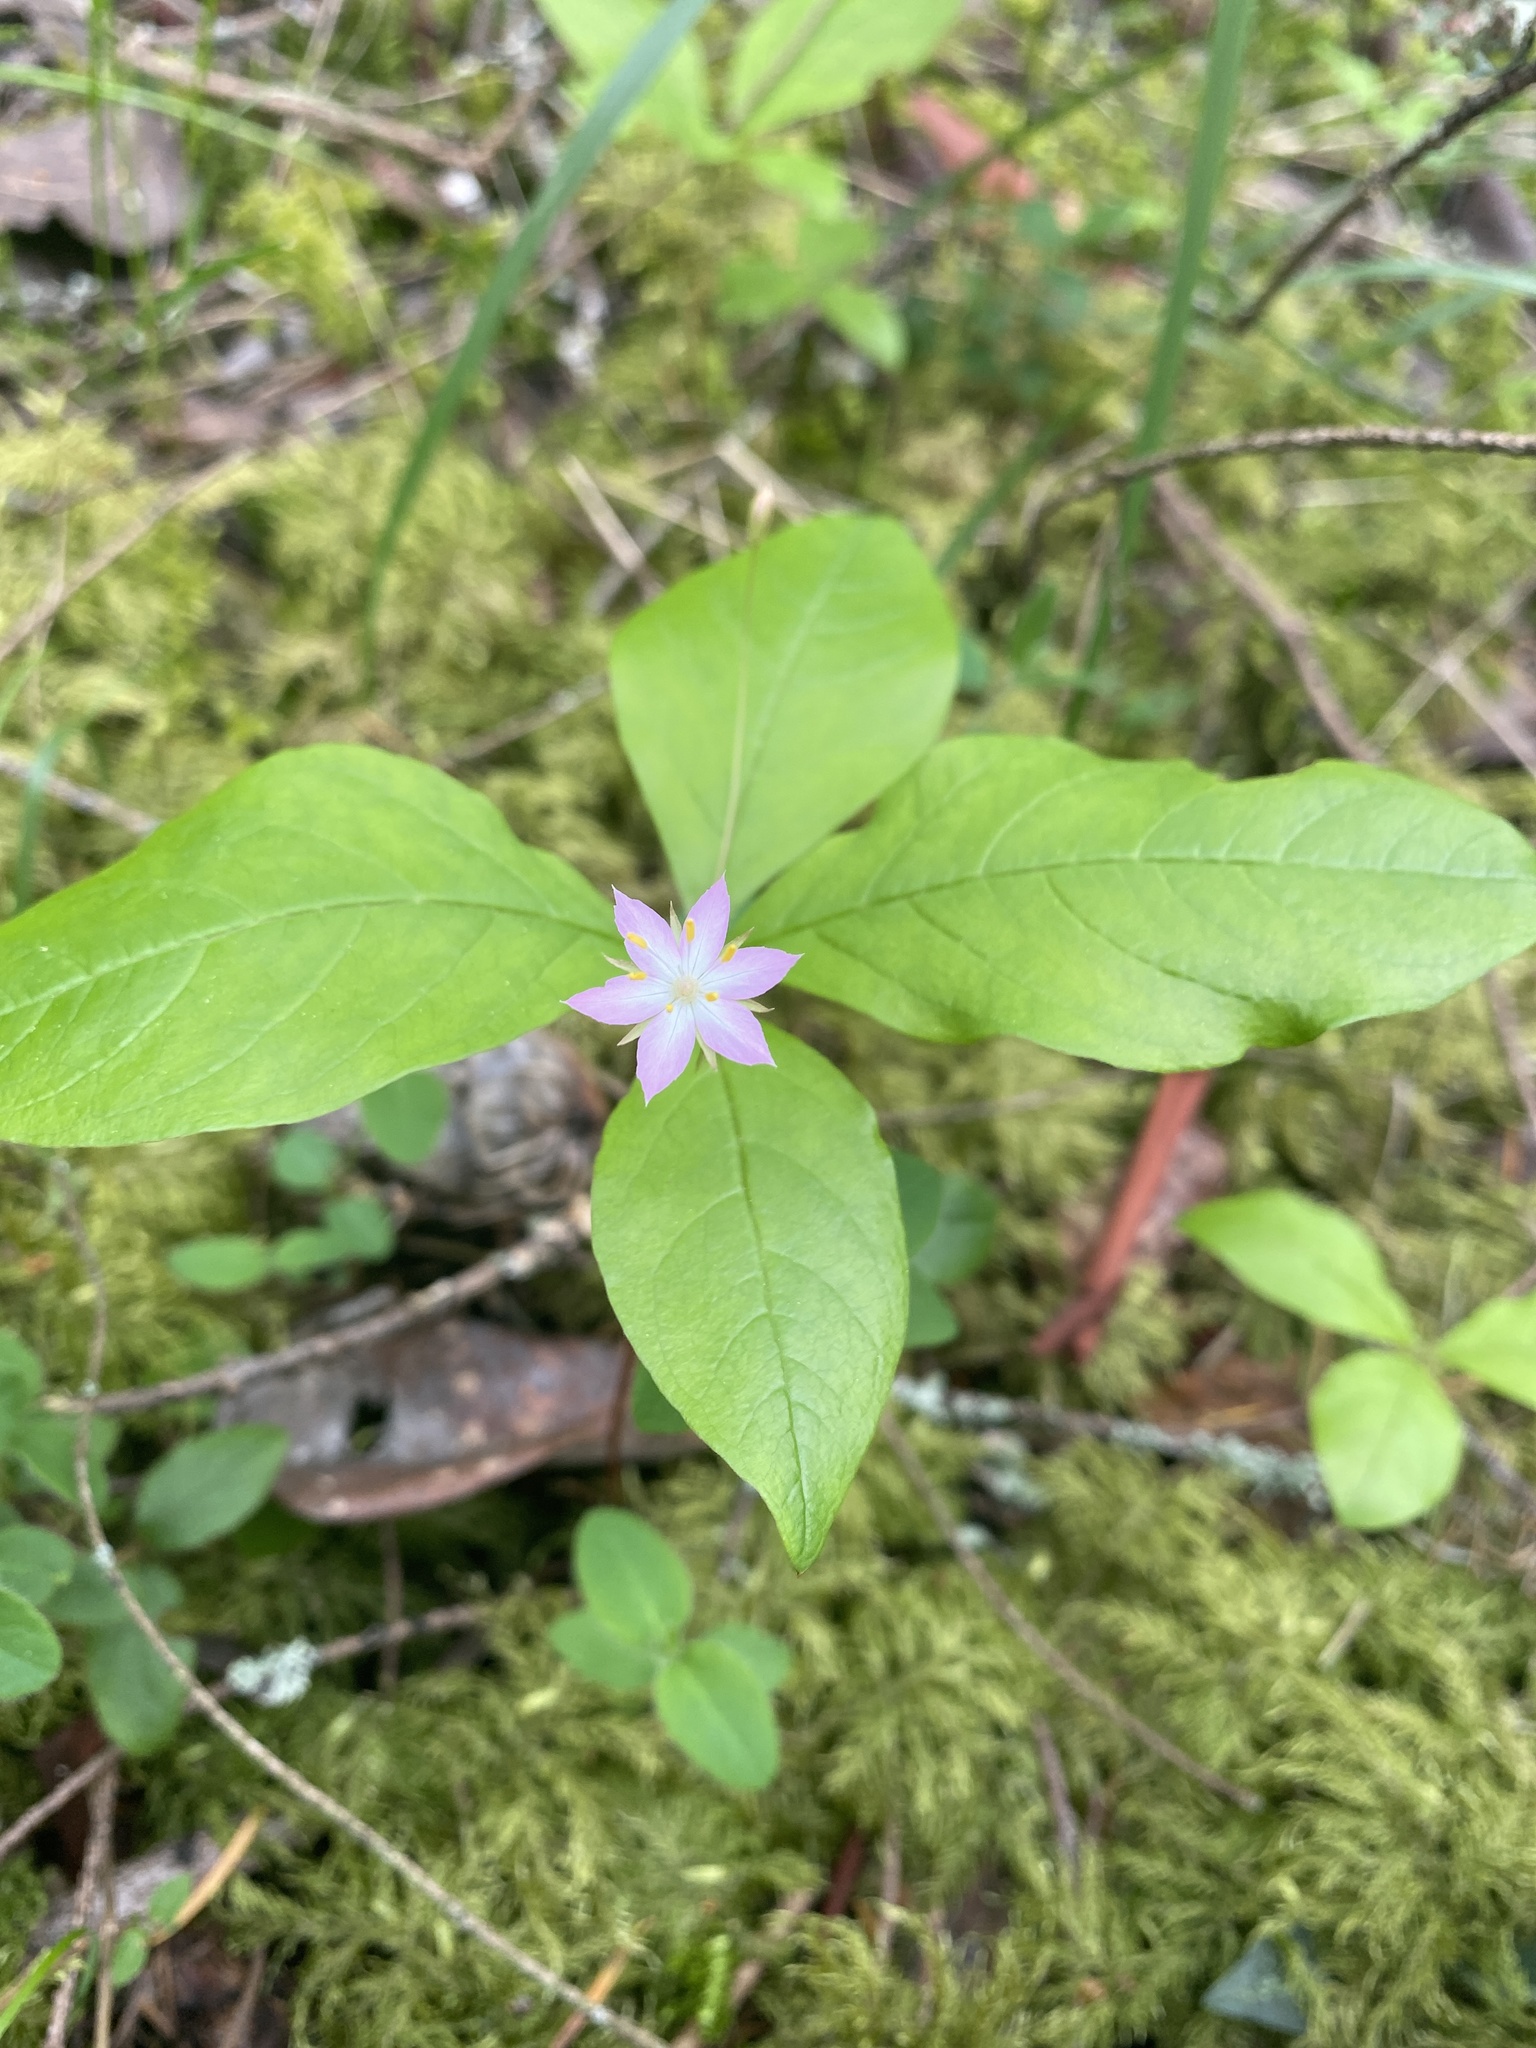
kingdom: Plantae
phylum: Tracheophyta
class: Magnoliopsida
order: Ericales
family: Primulaceae
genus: Lysimachia
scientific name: Lysimachia latifolia
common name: Pacific starflower
